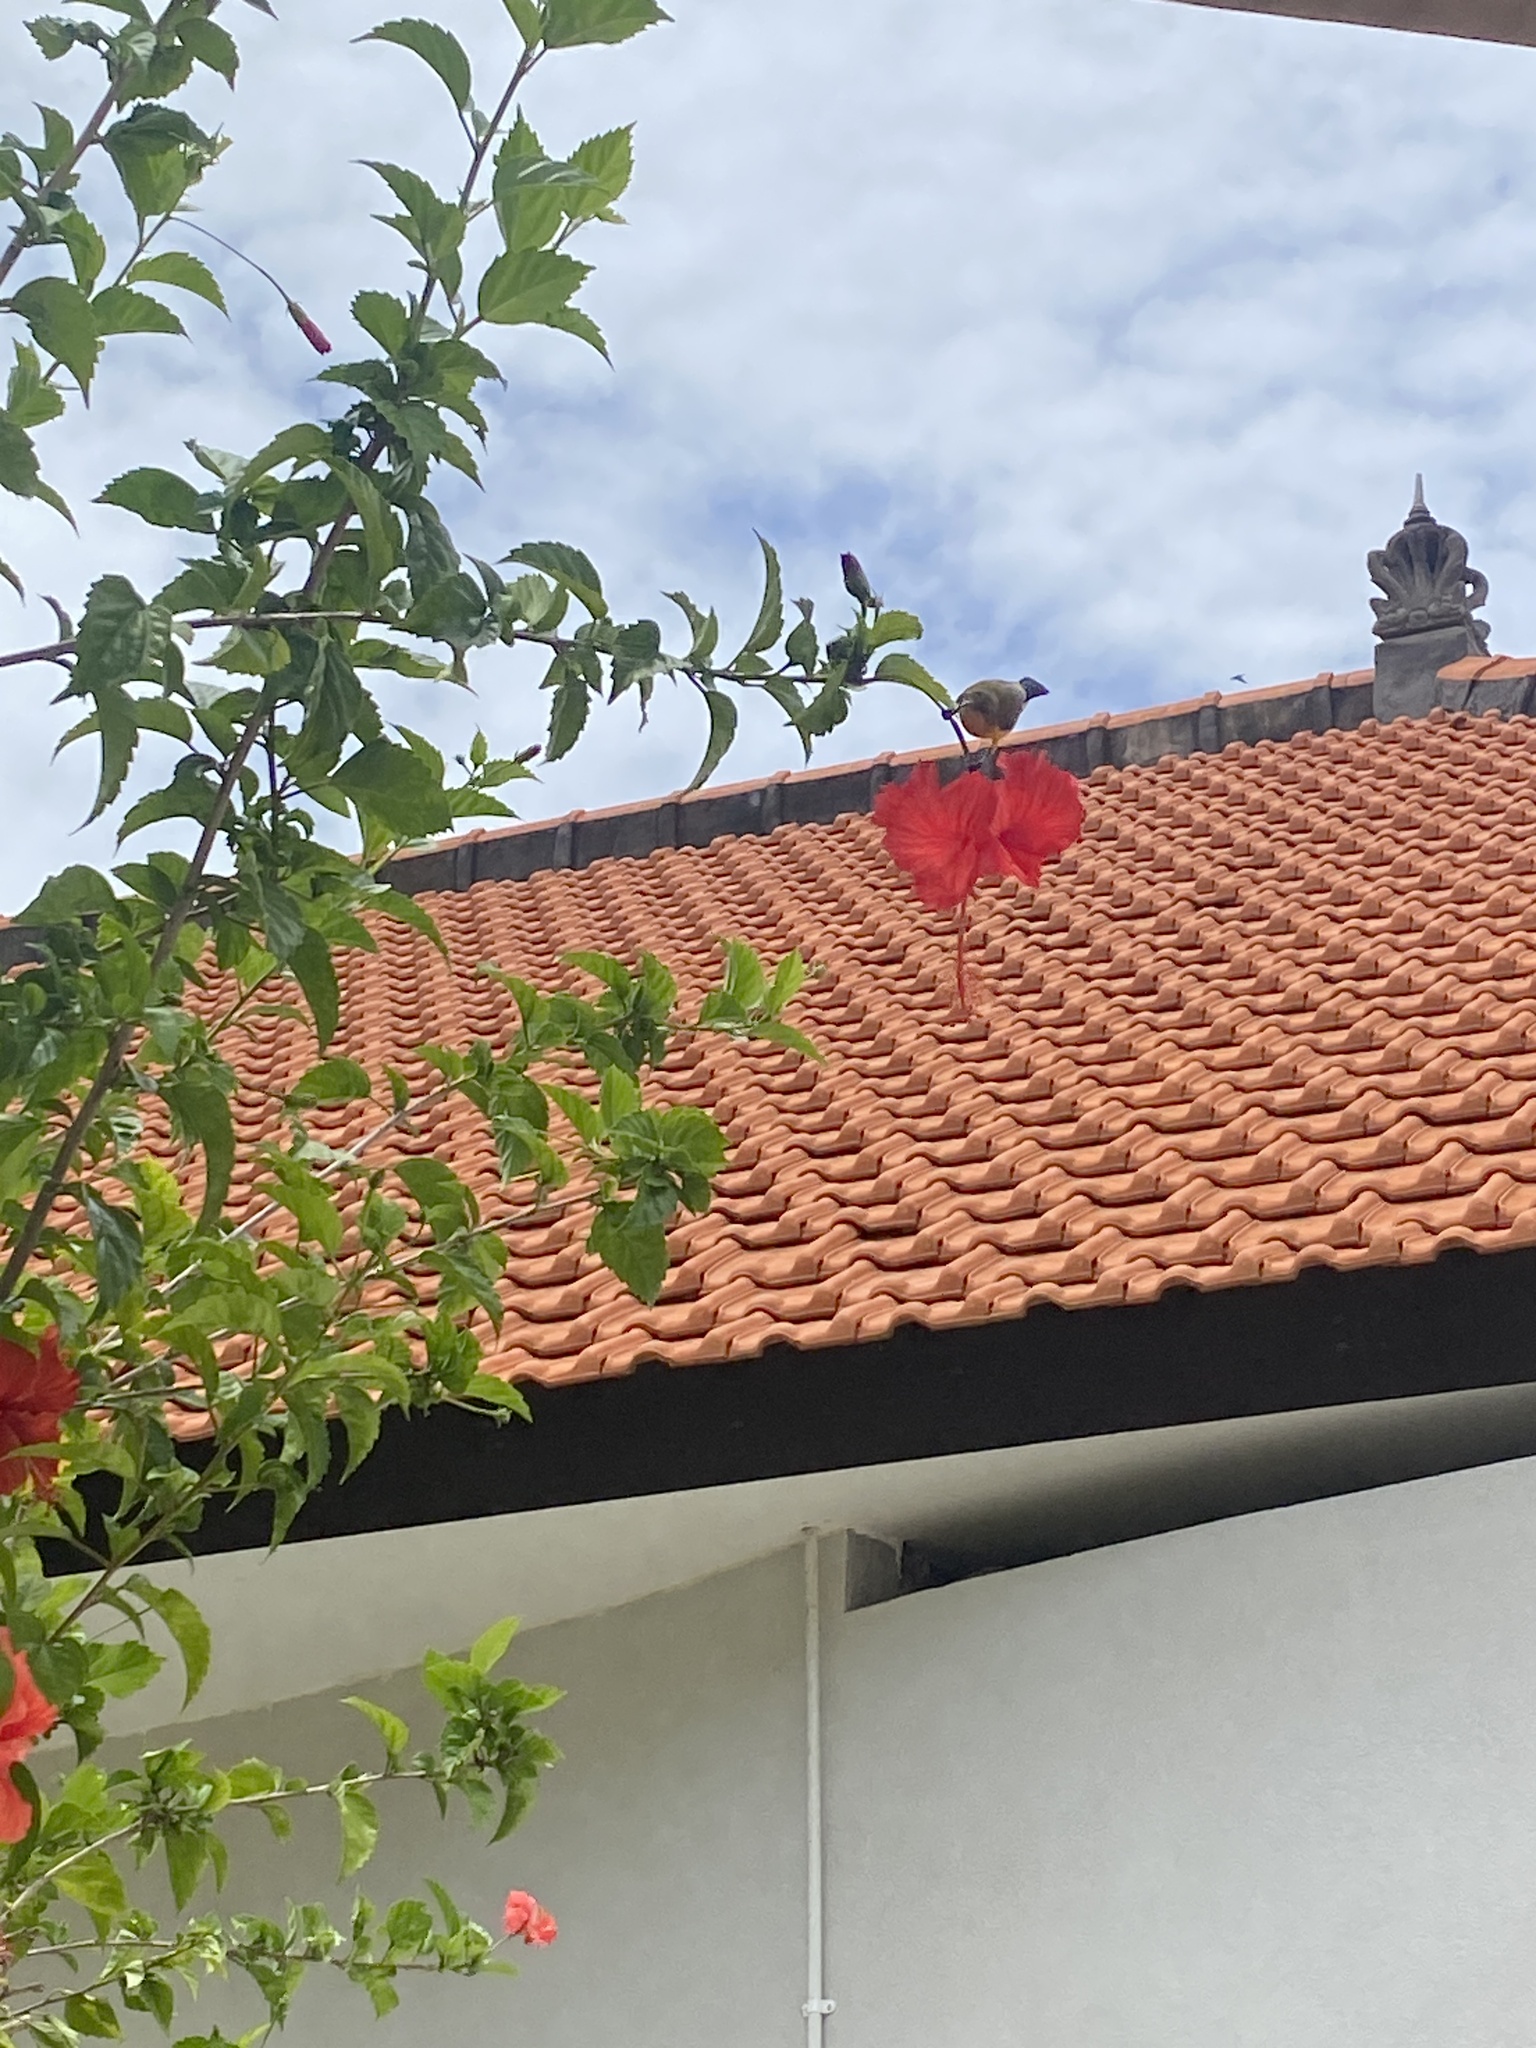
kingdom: Animalia
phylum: Chordata
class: Aves
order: Passeriformes
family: Nectariniidae
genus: Cinnyris
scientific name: Cinnyris
